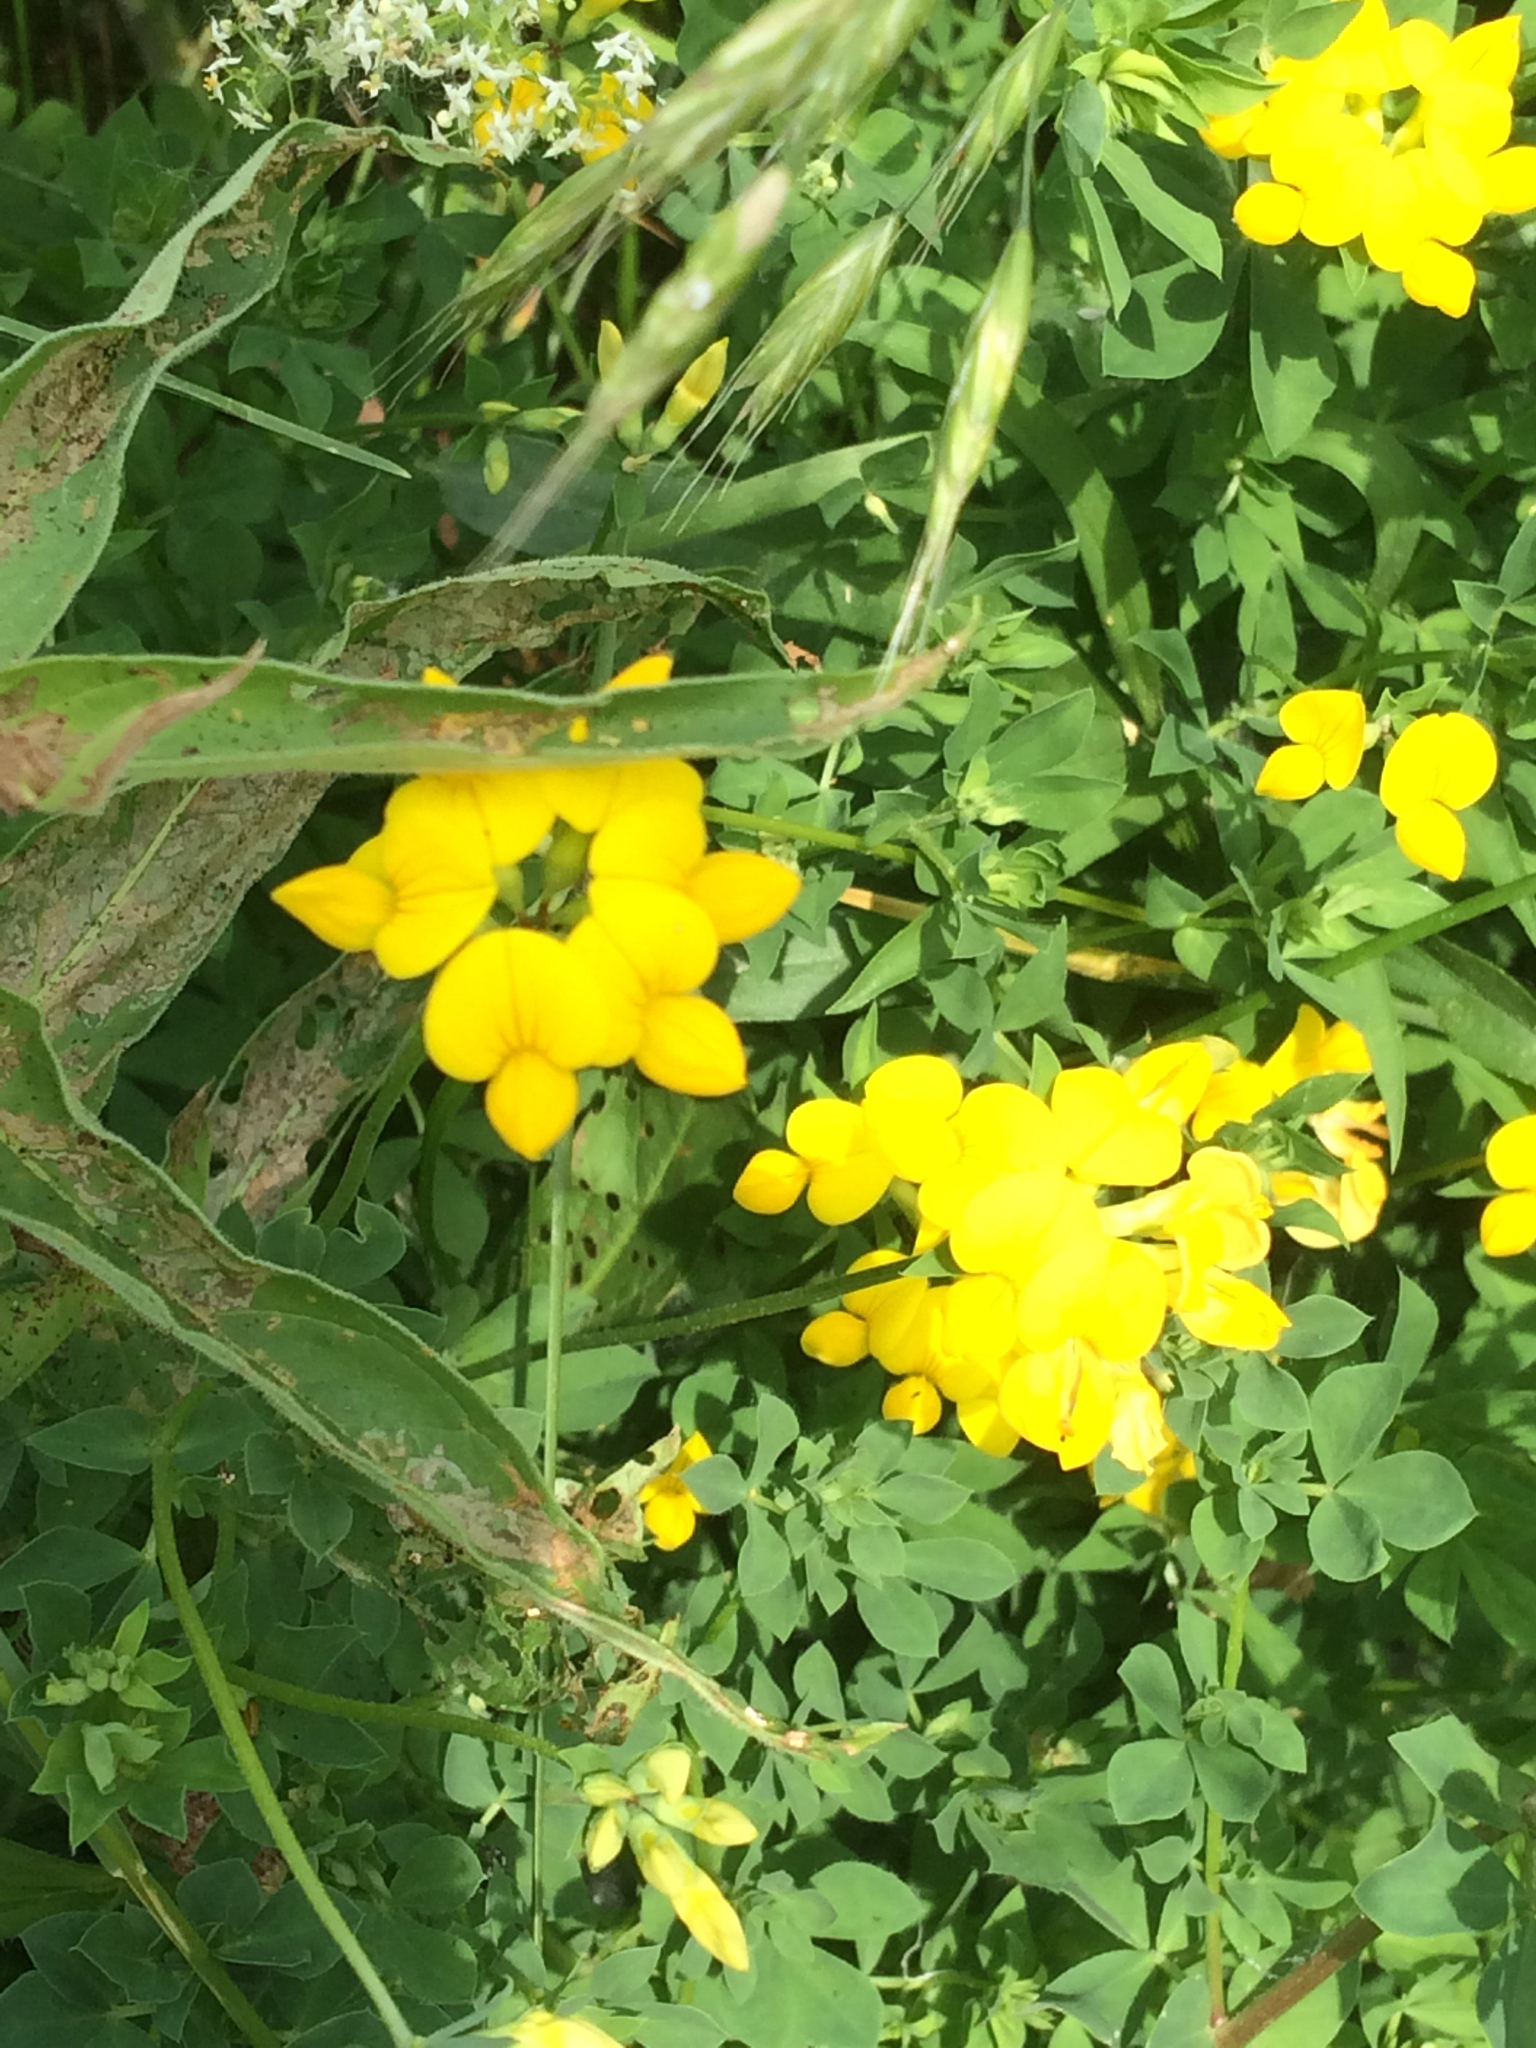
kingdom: Plantae
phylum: Tracheophyta
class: Magnoliopsida
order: Fabales
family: Fabaceae
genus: Lotus
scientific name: Lotus corniculatus
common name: Common bird's-foot-trefoil
